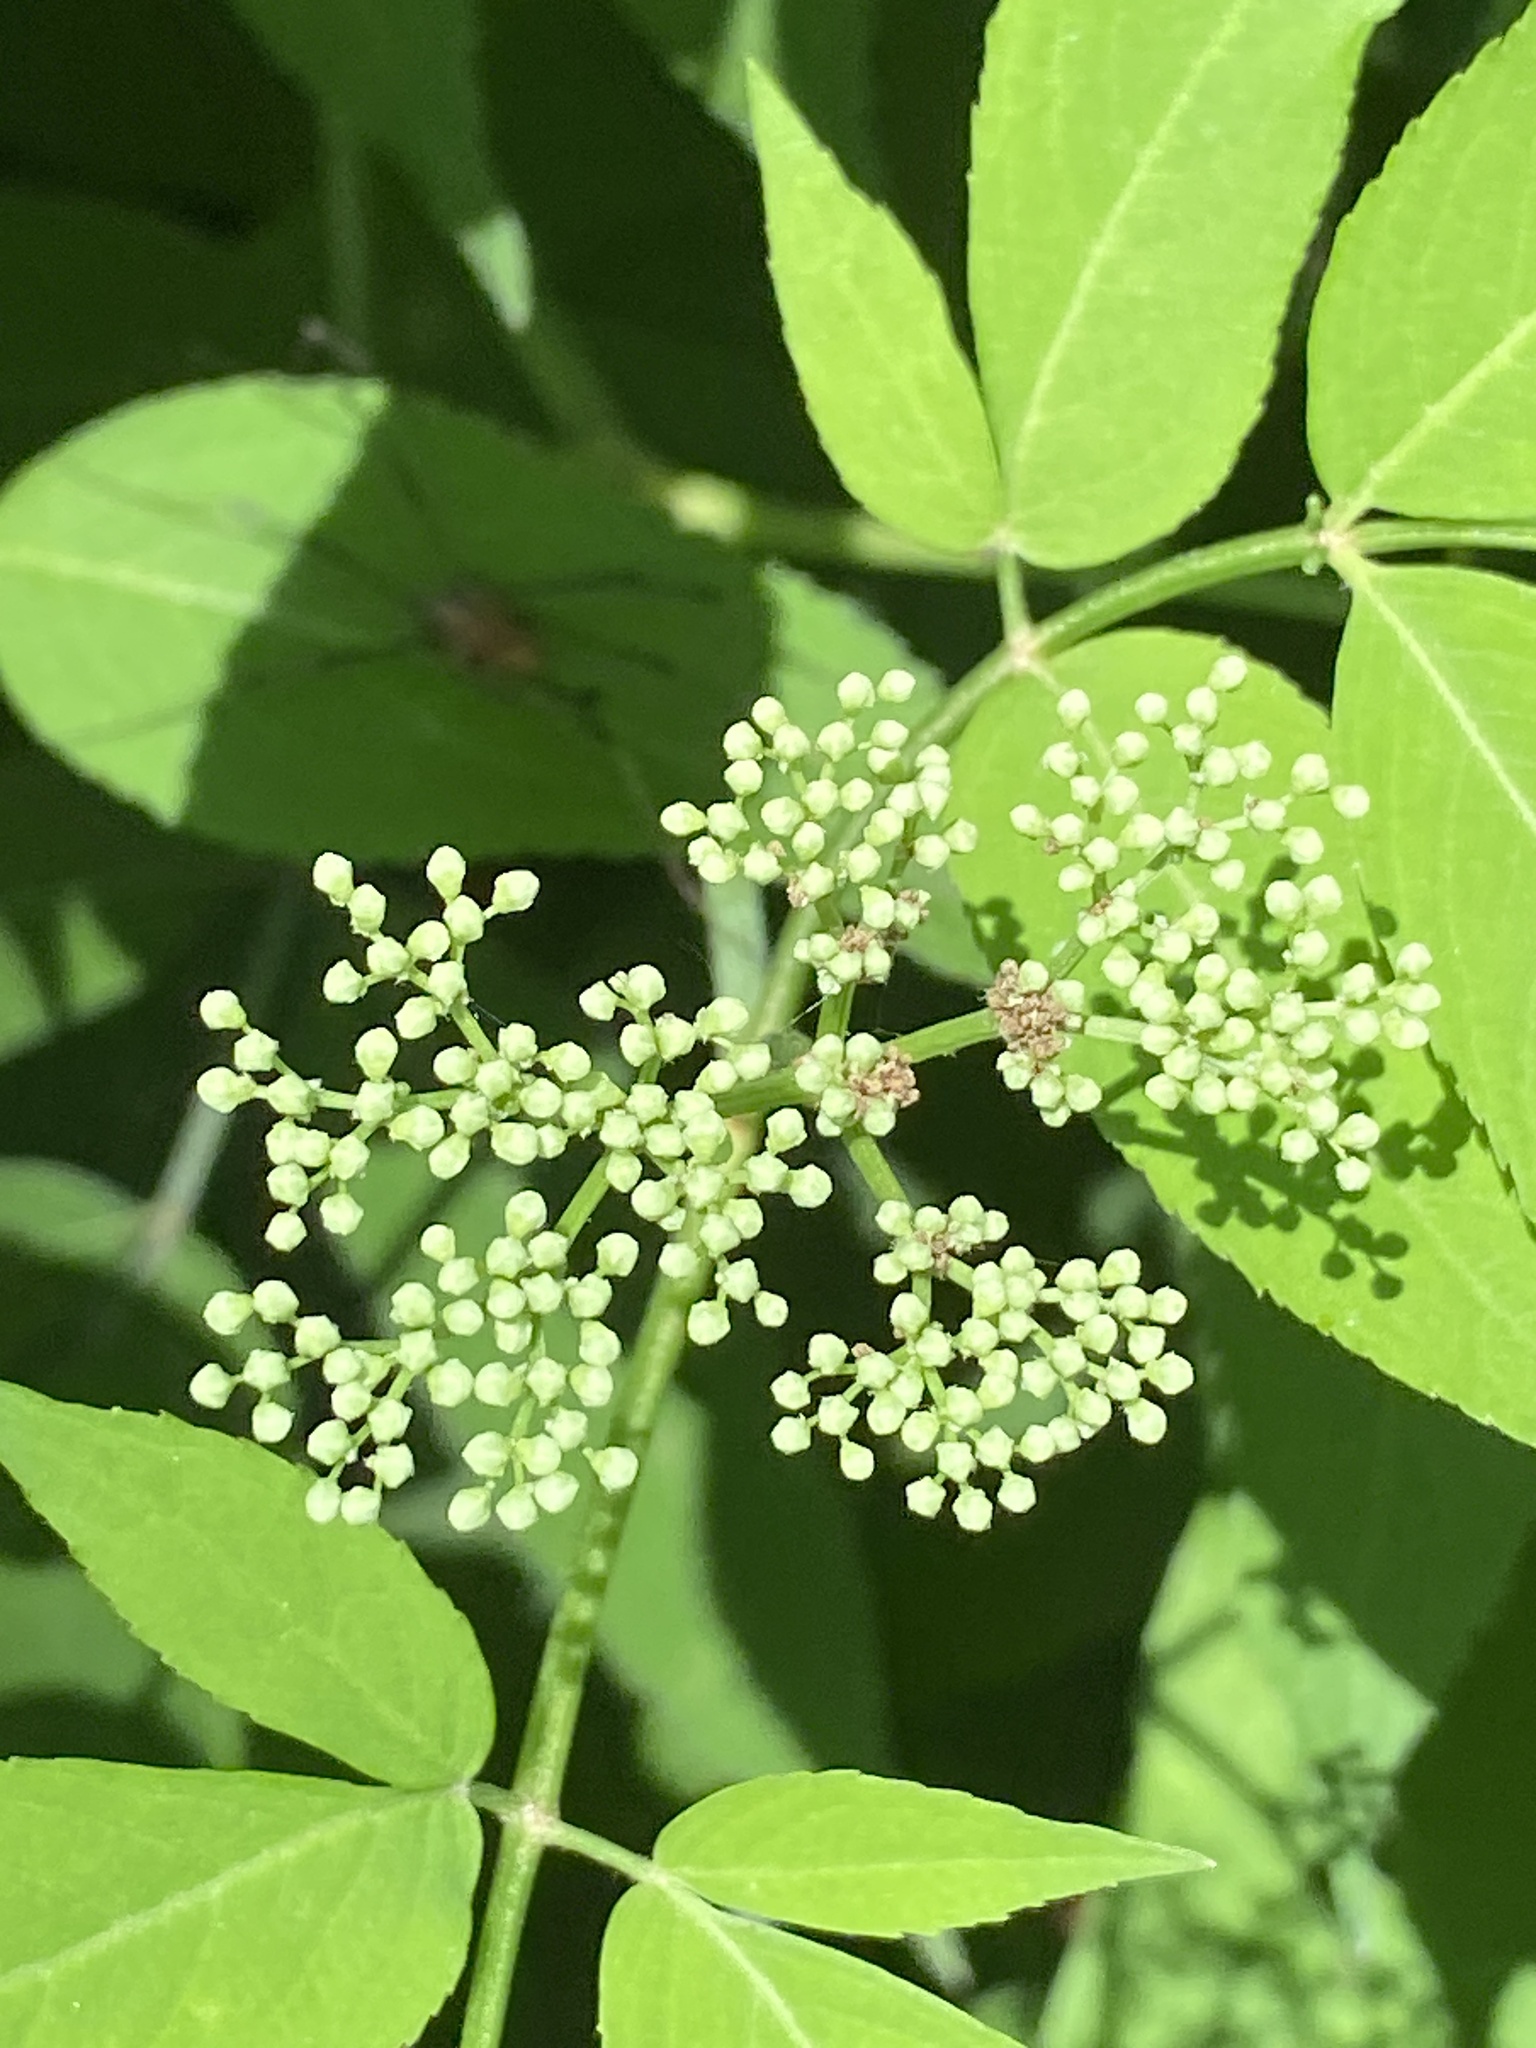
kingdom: Plantae
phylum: Tracheophyta
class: Magnoliopsida
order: Dipsacales
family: Viburnaceae
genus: Sambucus
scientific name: Sambucus canadensis
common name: American elder
